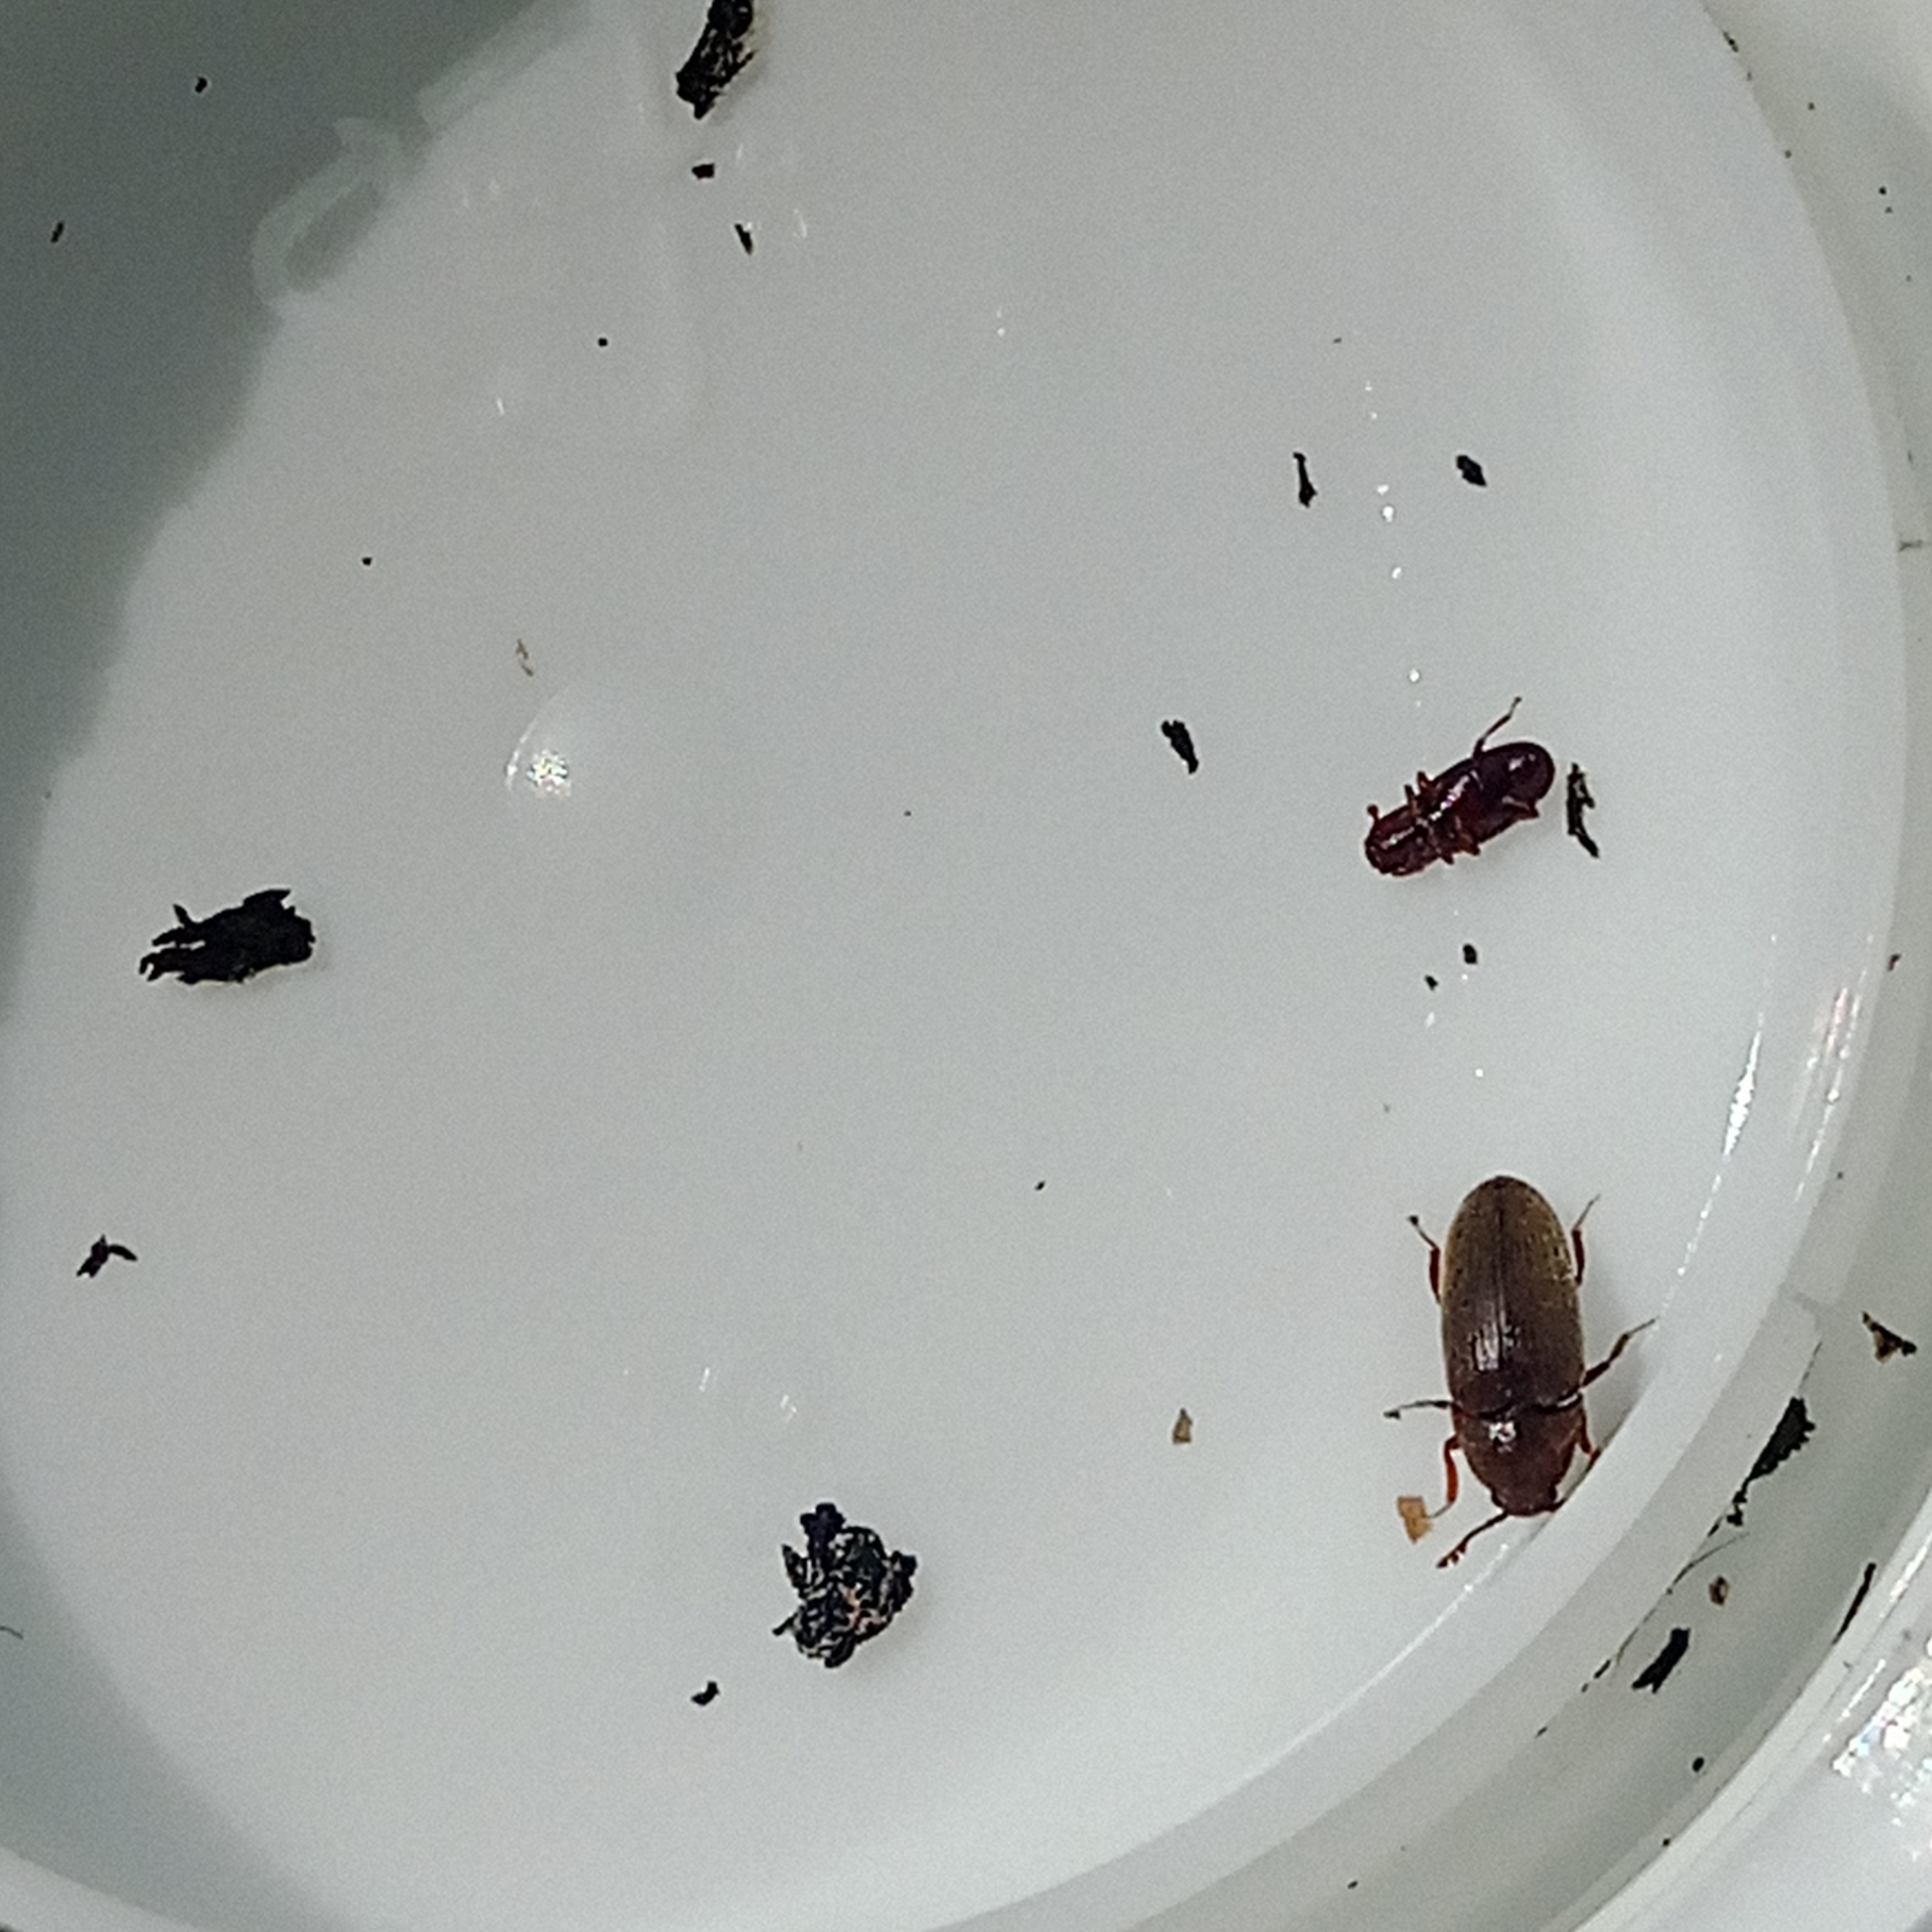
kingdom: Animalia
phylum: Arthropoda
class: Insecta
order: Coleoptera
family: Throscidae
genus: Trixagus
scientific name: Trixagus dermestoides
